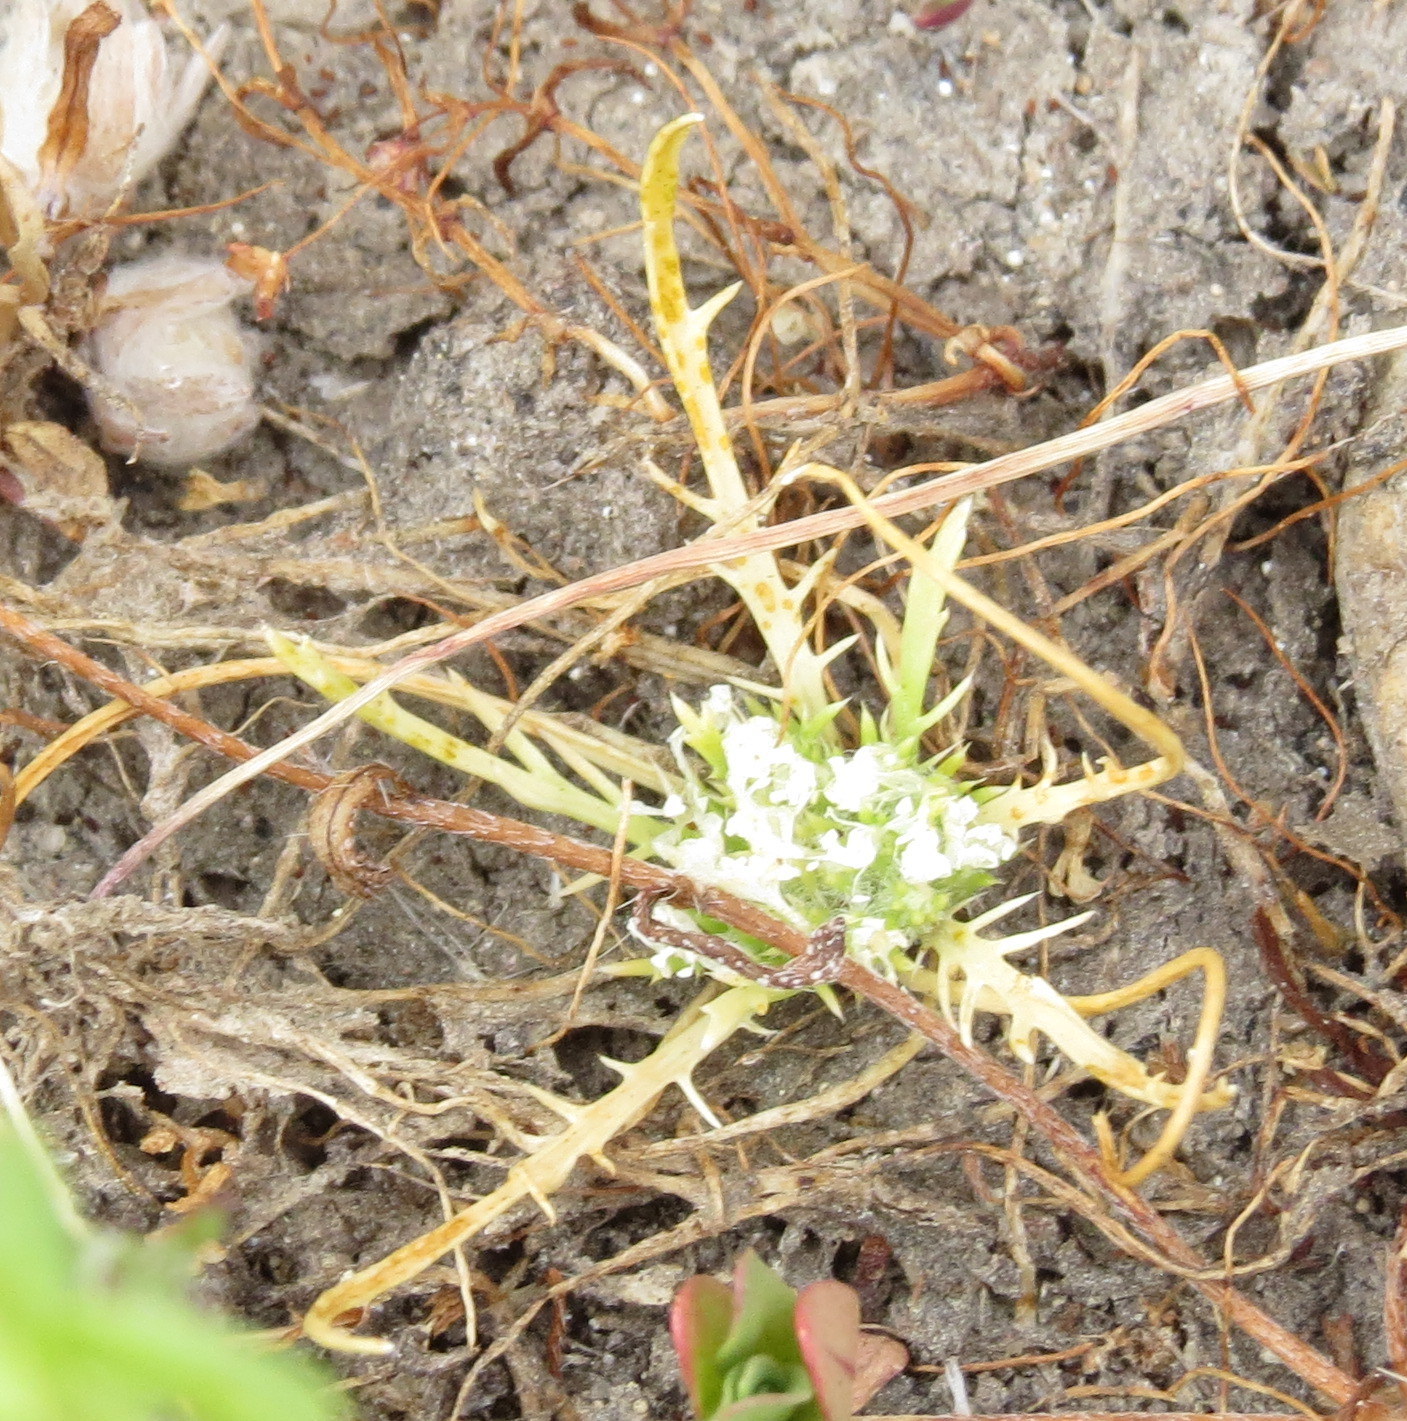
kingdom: Plantae
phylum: Tracheophyta
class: Magnoliopsida
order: Ericales
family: Polemoniaceae
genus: Navarretia
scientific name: Navarretia prostrata
